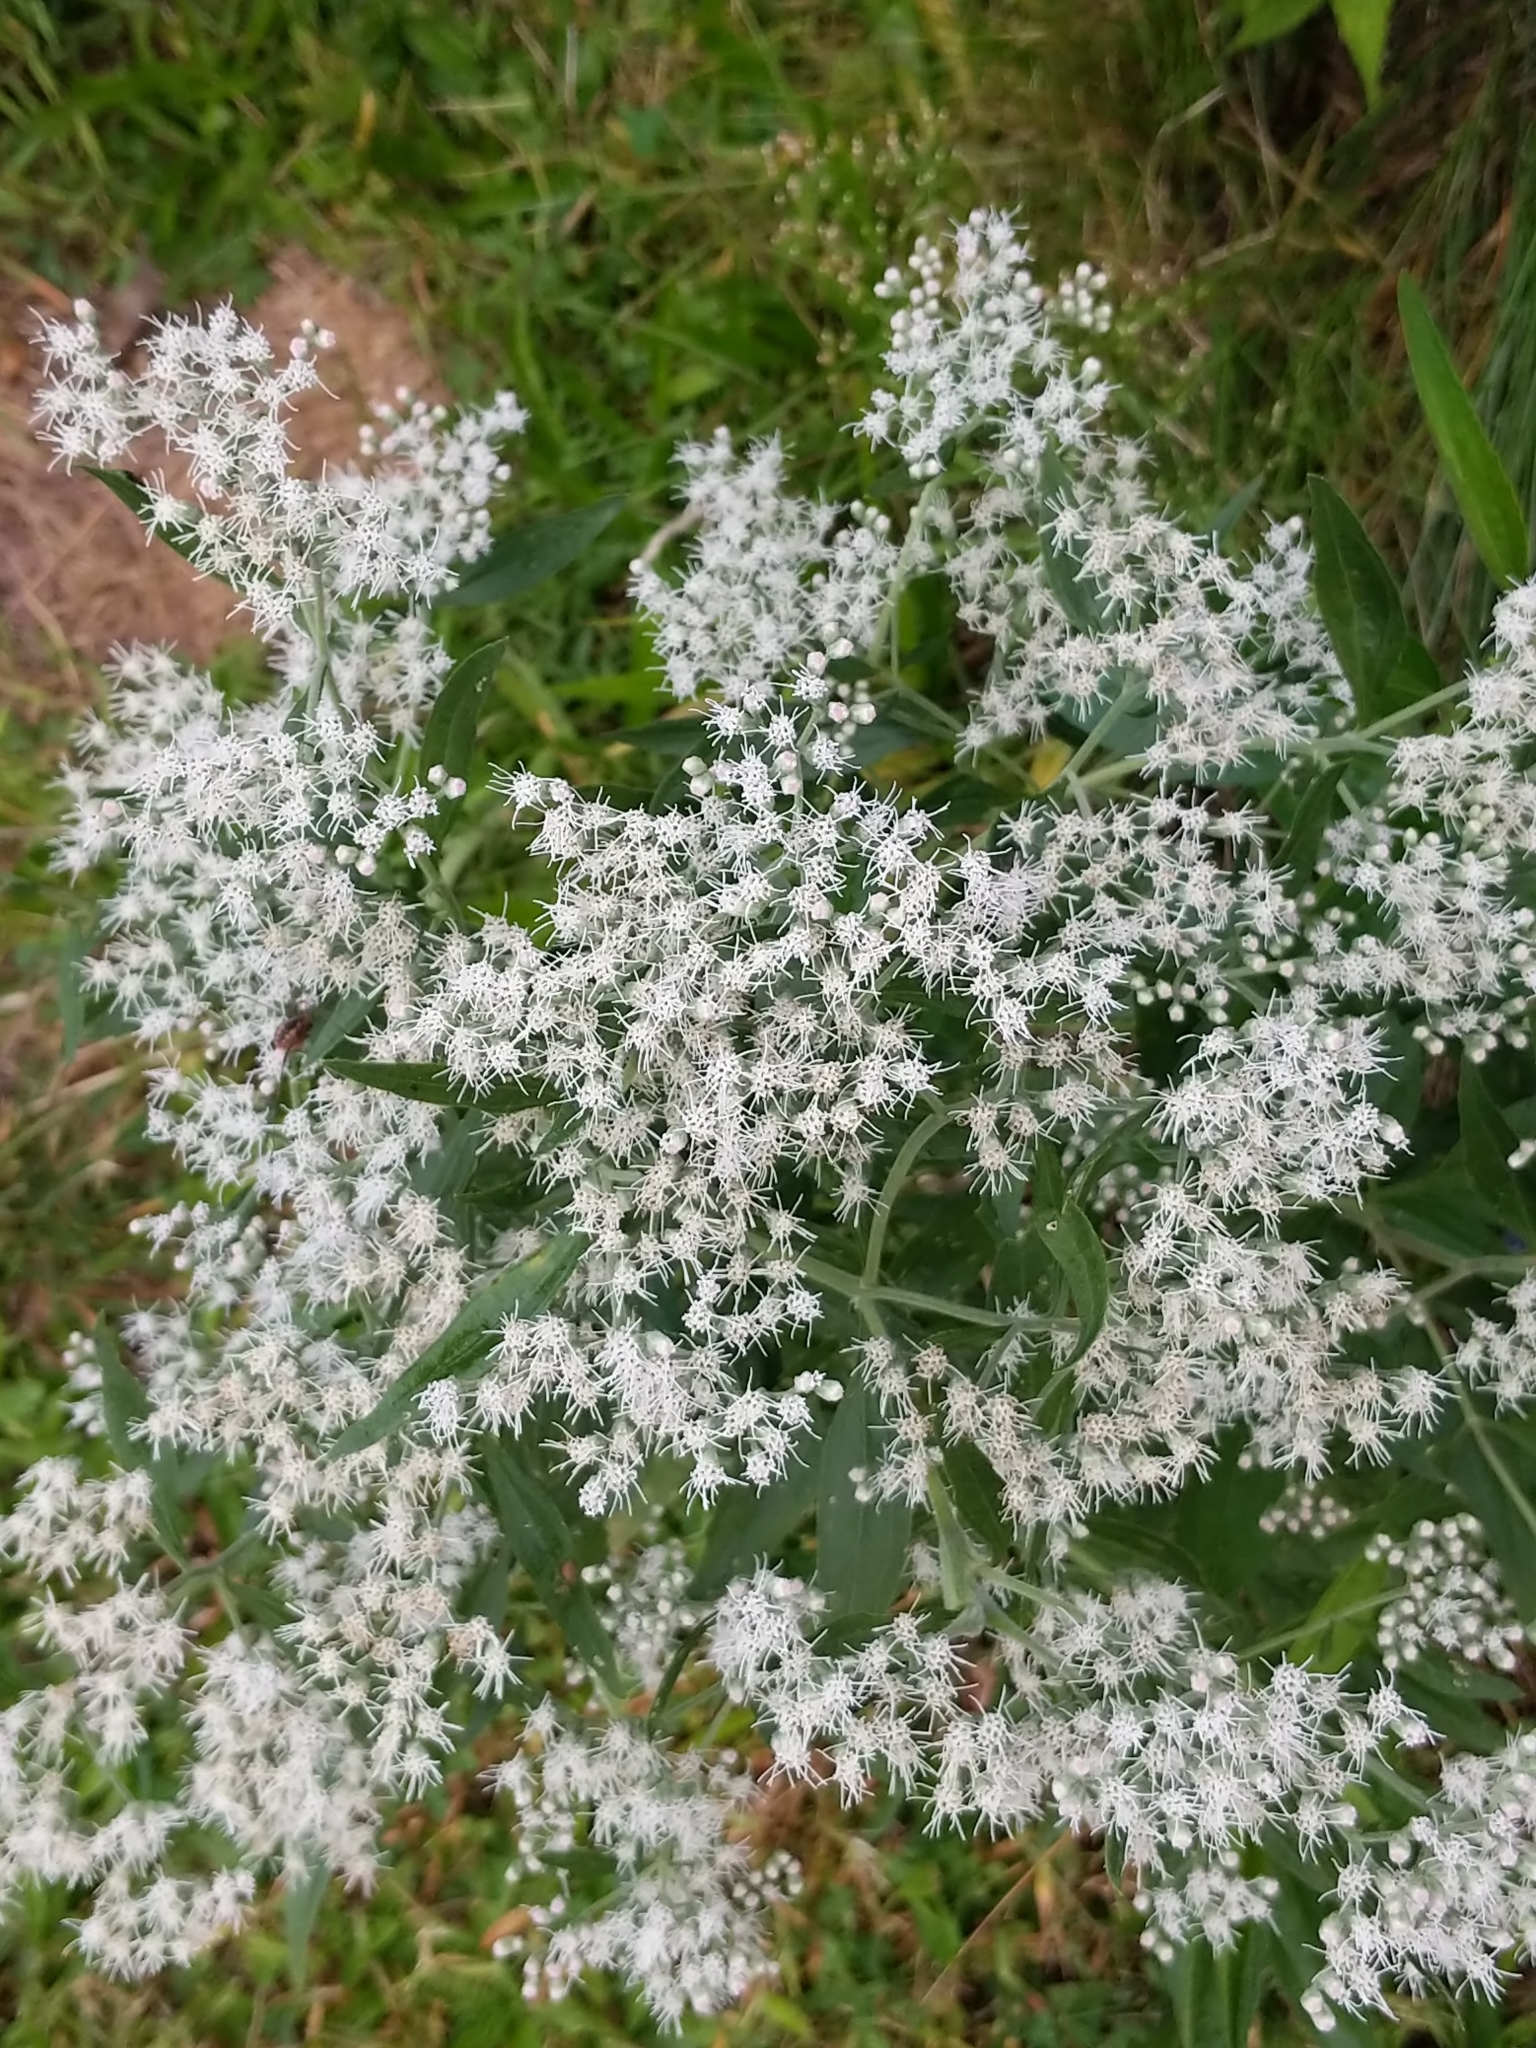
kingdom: Plantae
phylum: Tracheophyta
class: Magnoliopsida
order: Asterales
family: Asteraceae
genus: Eupatorium
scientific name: Eupatorium serotinum
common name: Late boneset
